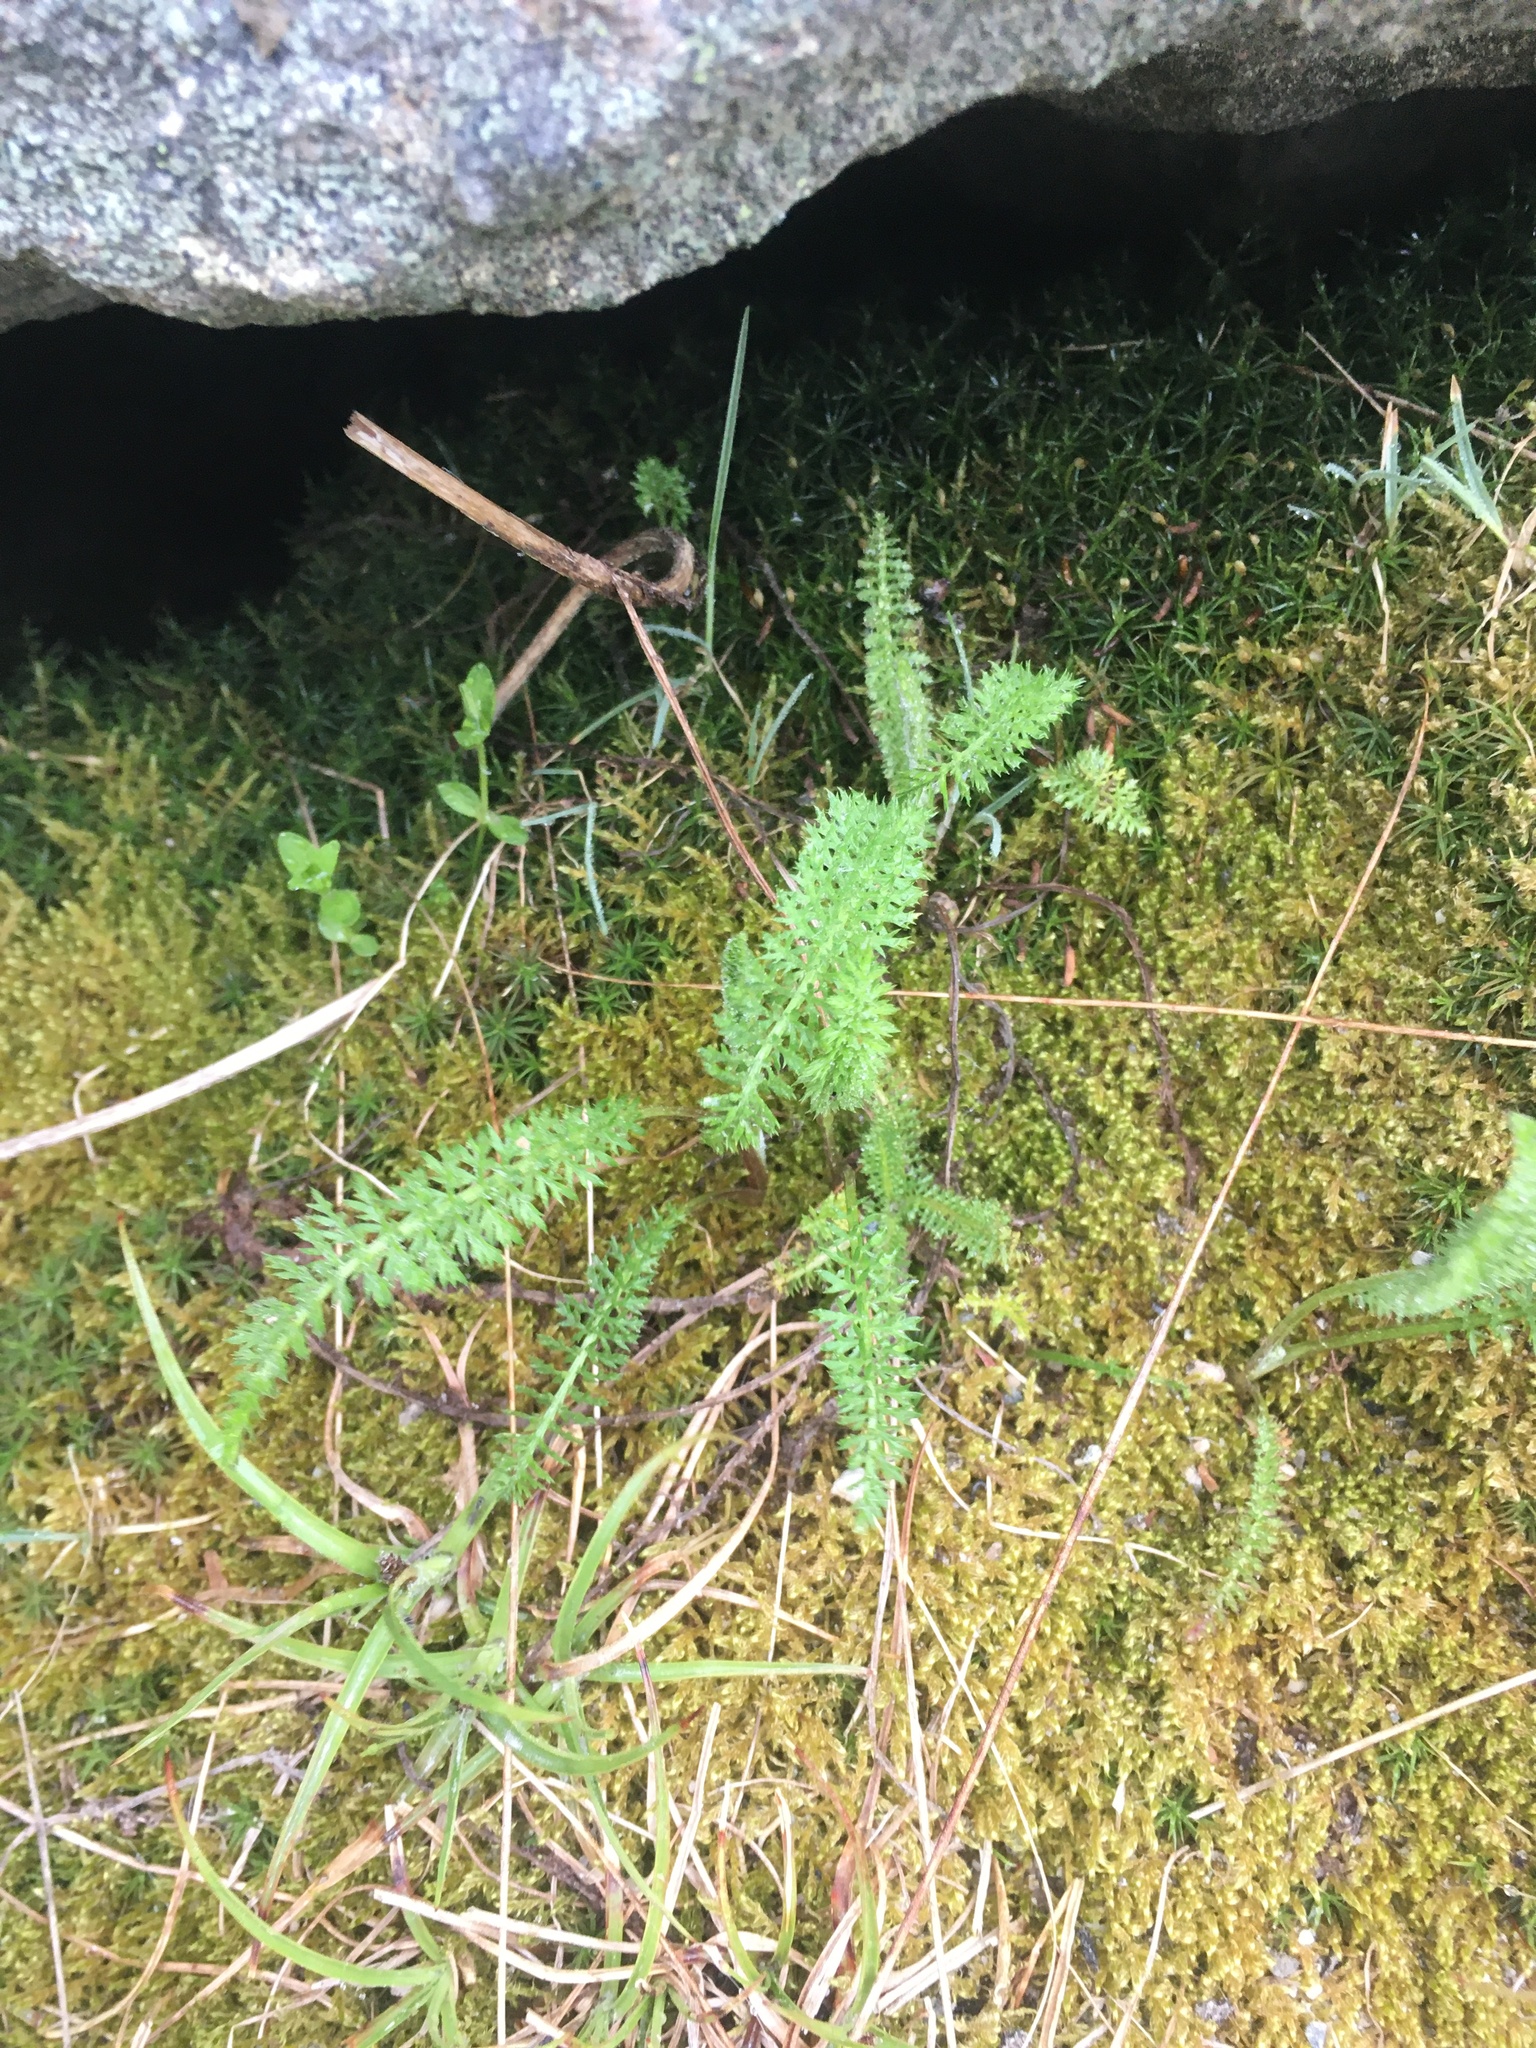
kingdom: Plantae
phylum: Tracheophyta
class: Magnoliopsida
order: Asterales
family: Asteraceae
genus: Achillea
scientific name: Achillea millefolium
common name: Yarrow
